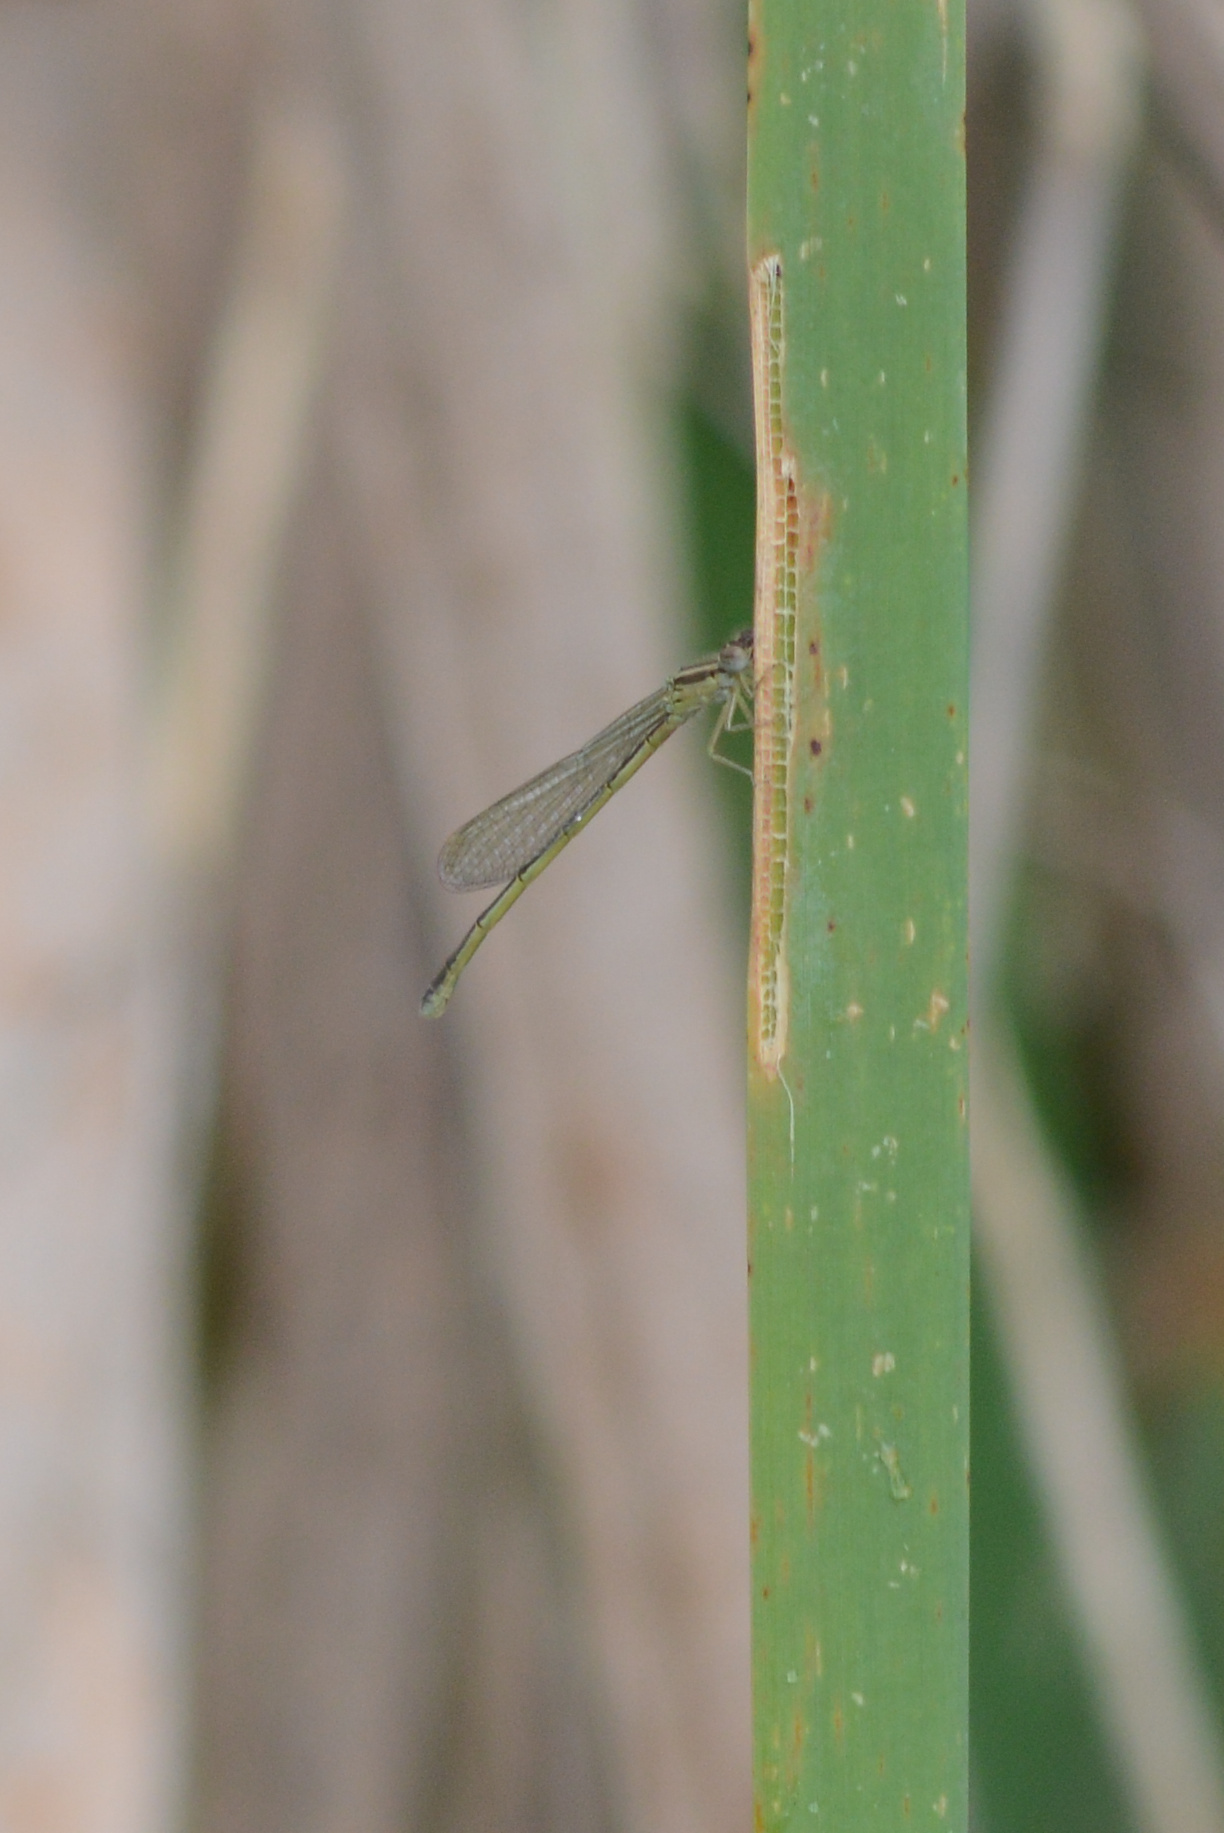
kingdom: Animalia
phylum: Arthropoda
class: Insecta
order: Odonata
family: Coenagrionidae
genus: Ischnura
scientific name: Ischnura aurora
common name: Gossamer damselfly
